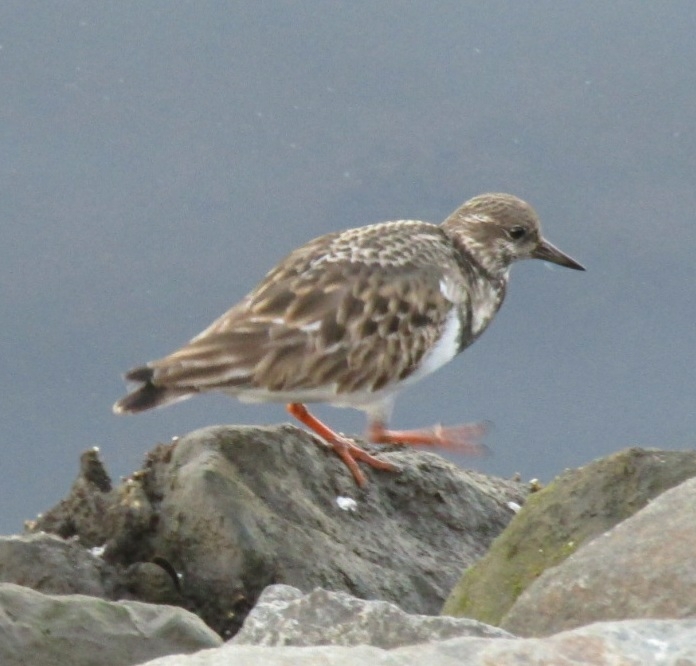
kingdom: Animalia
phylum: Chordata
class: Aves
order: Charadriiformes
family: Scolopacidae
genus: Arenaria
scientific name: Arenaria interpres
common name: Ruddy turnstone
